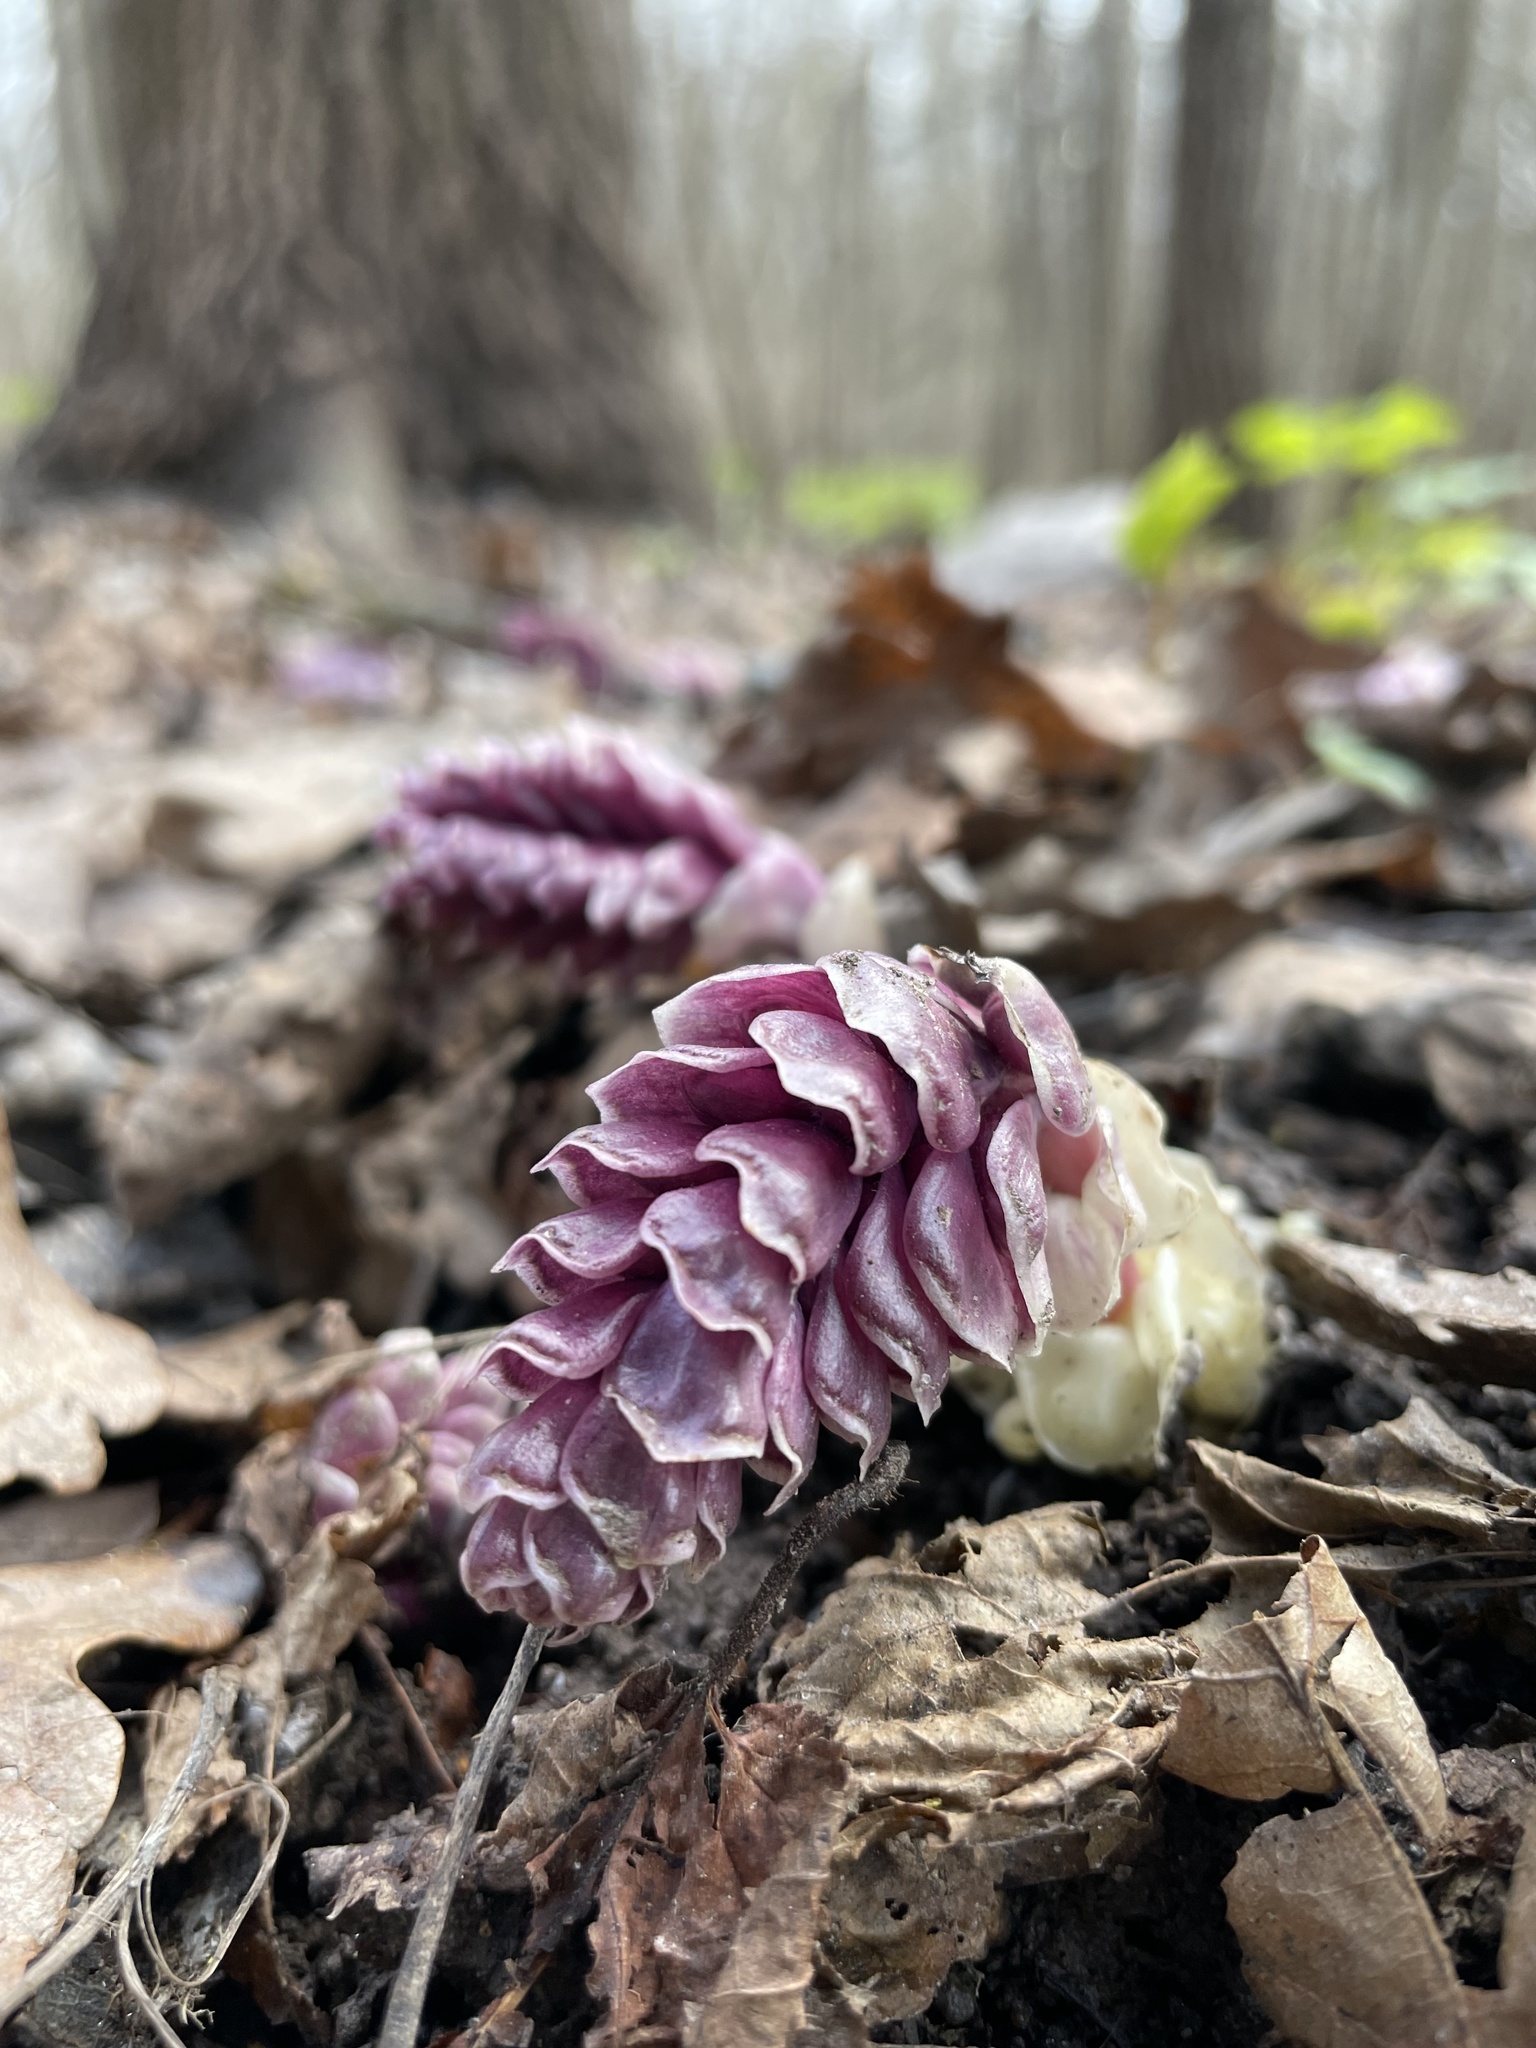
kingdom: Plantae
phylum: Tracheophyta
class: Magnoliopsida
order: Lamiales
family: Orobanchaceae
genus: Lathraea
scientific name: Lathraea squamaria
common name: Toothwort
